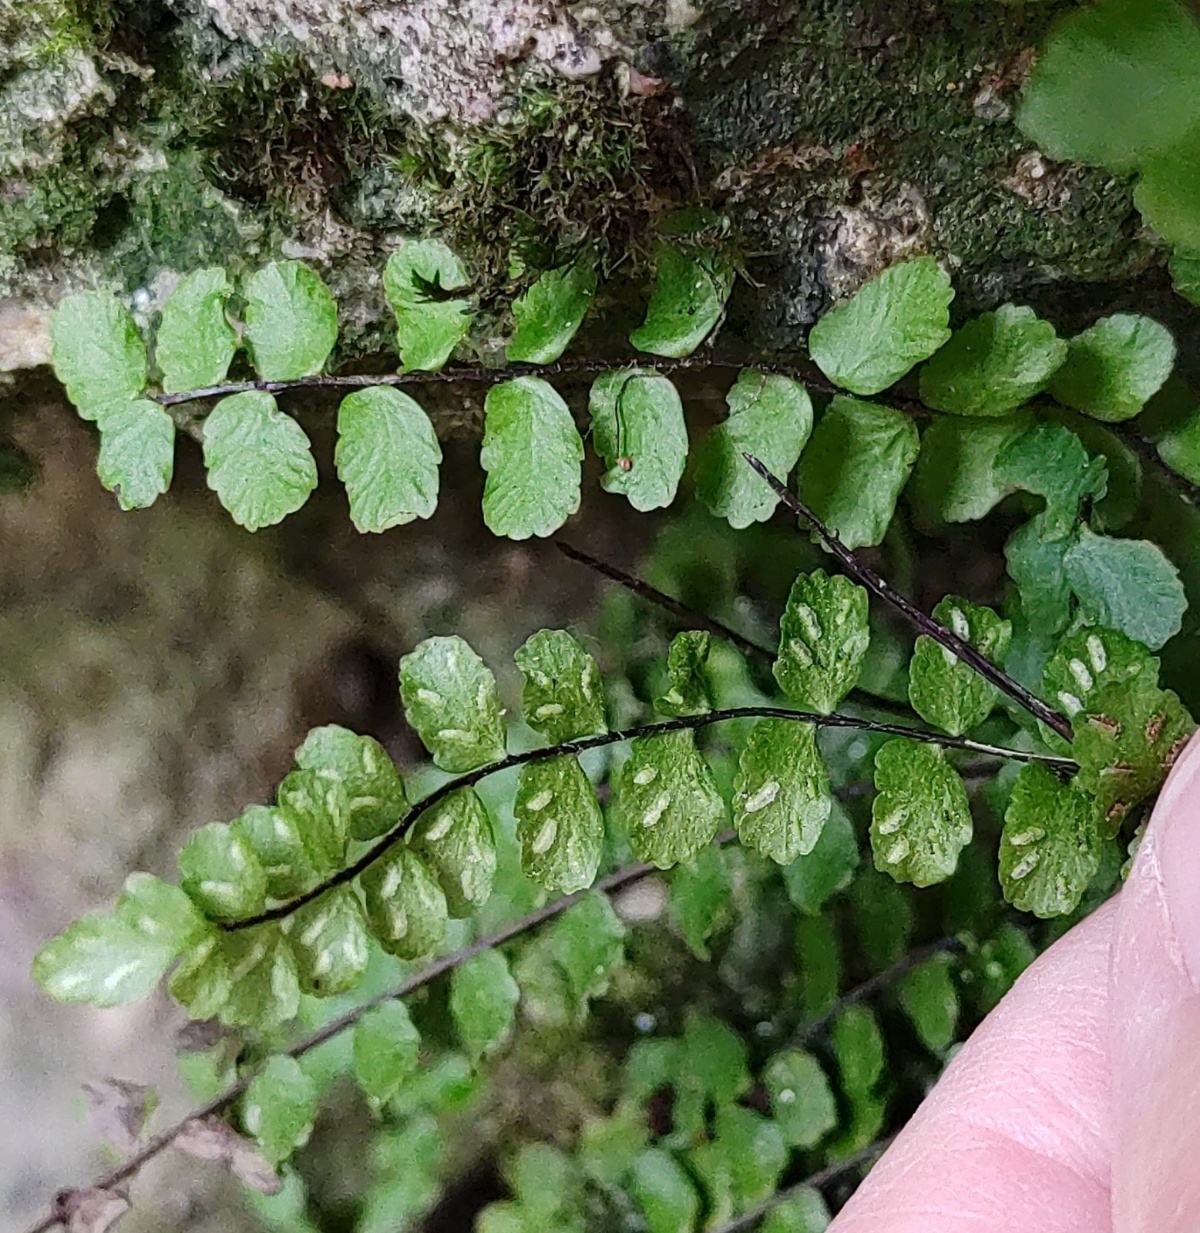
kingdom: Plantae
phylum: Tracheophyta
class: Polypodiopsida
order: Polypodiales
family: Aspleniaceae
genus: Asplenium
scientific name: Asplenium trichomanes
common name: Maidenhair spleenwort
